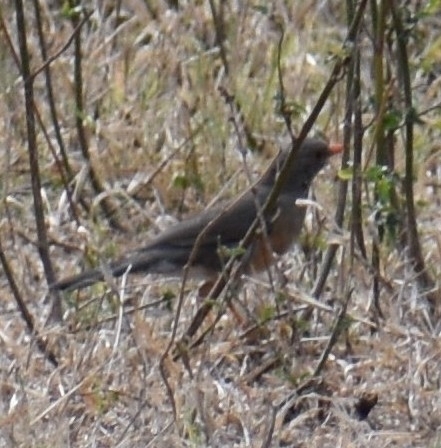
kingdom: Animalia
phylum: Chordata
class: Aves
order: Passeriformes
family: Turdidae
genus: Turdus
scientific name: Turdus libonyana
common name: Kurrichane thrush
